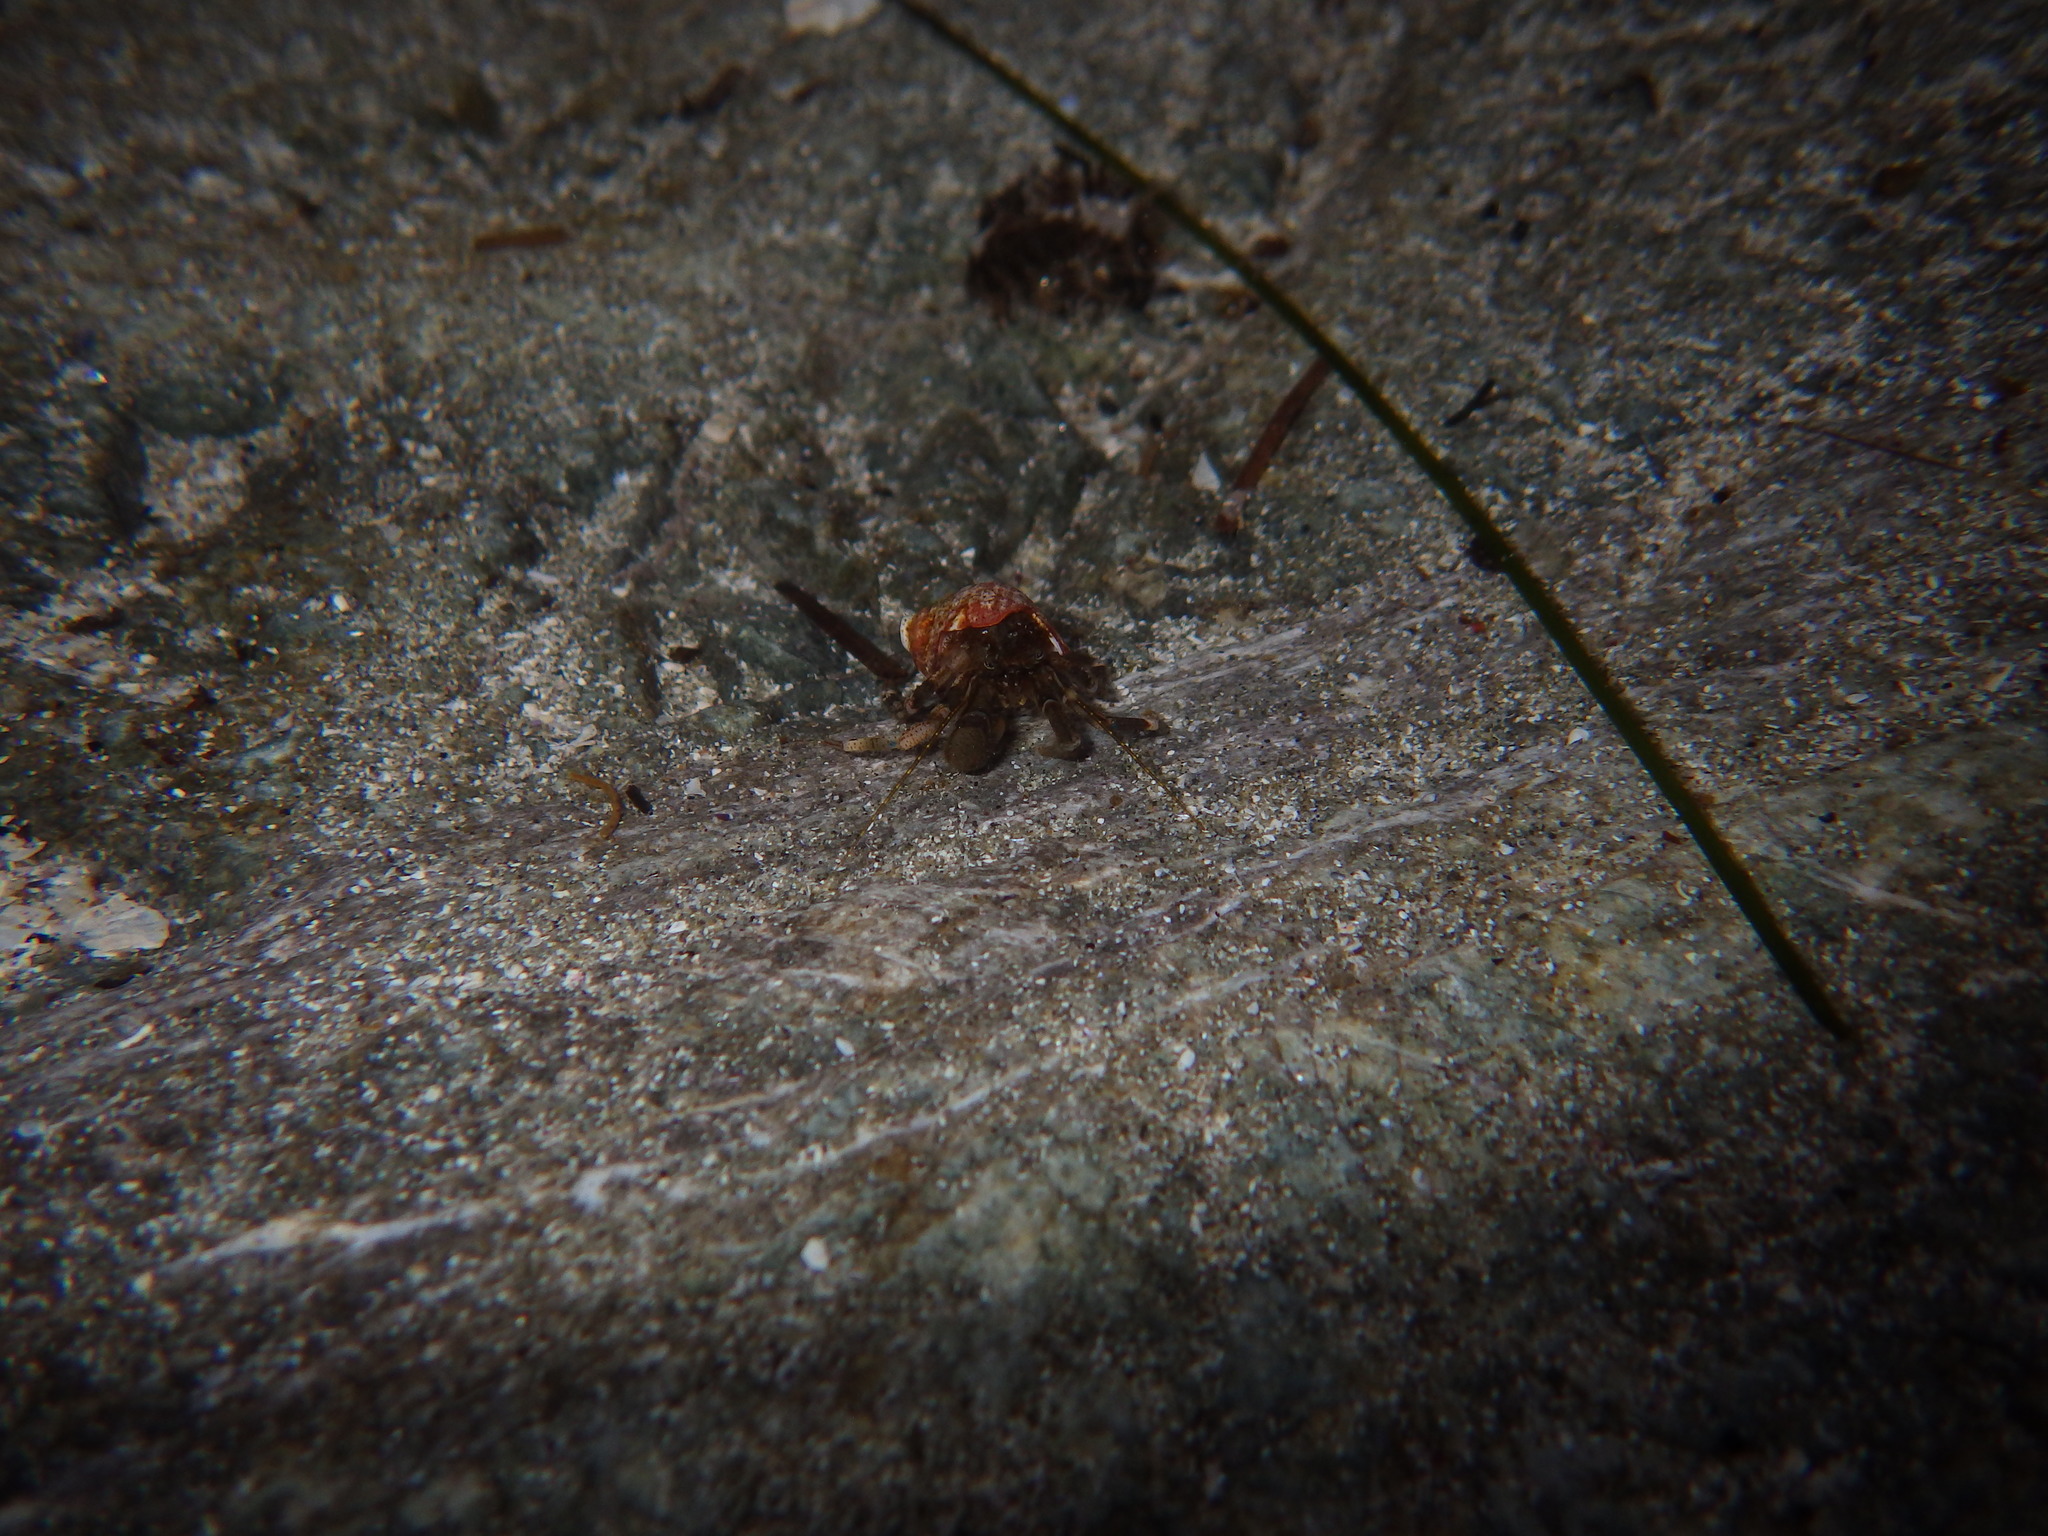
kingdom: Animalia
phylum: Arthropoda
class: Malacostraca
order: Decapoda
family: Paguridae
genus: Pagurus
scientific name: Pagurus hirsutiusculus
